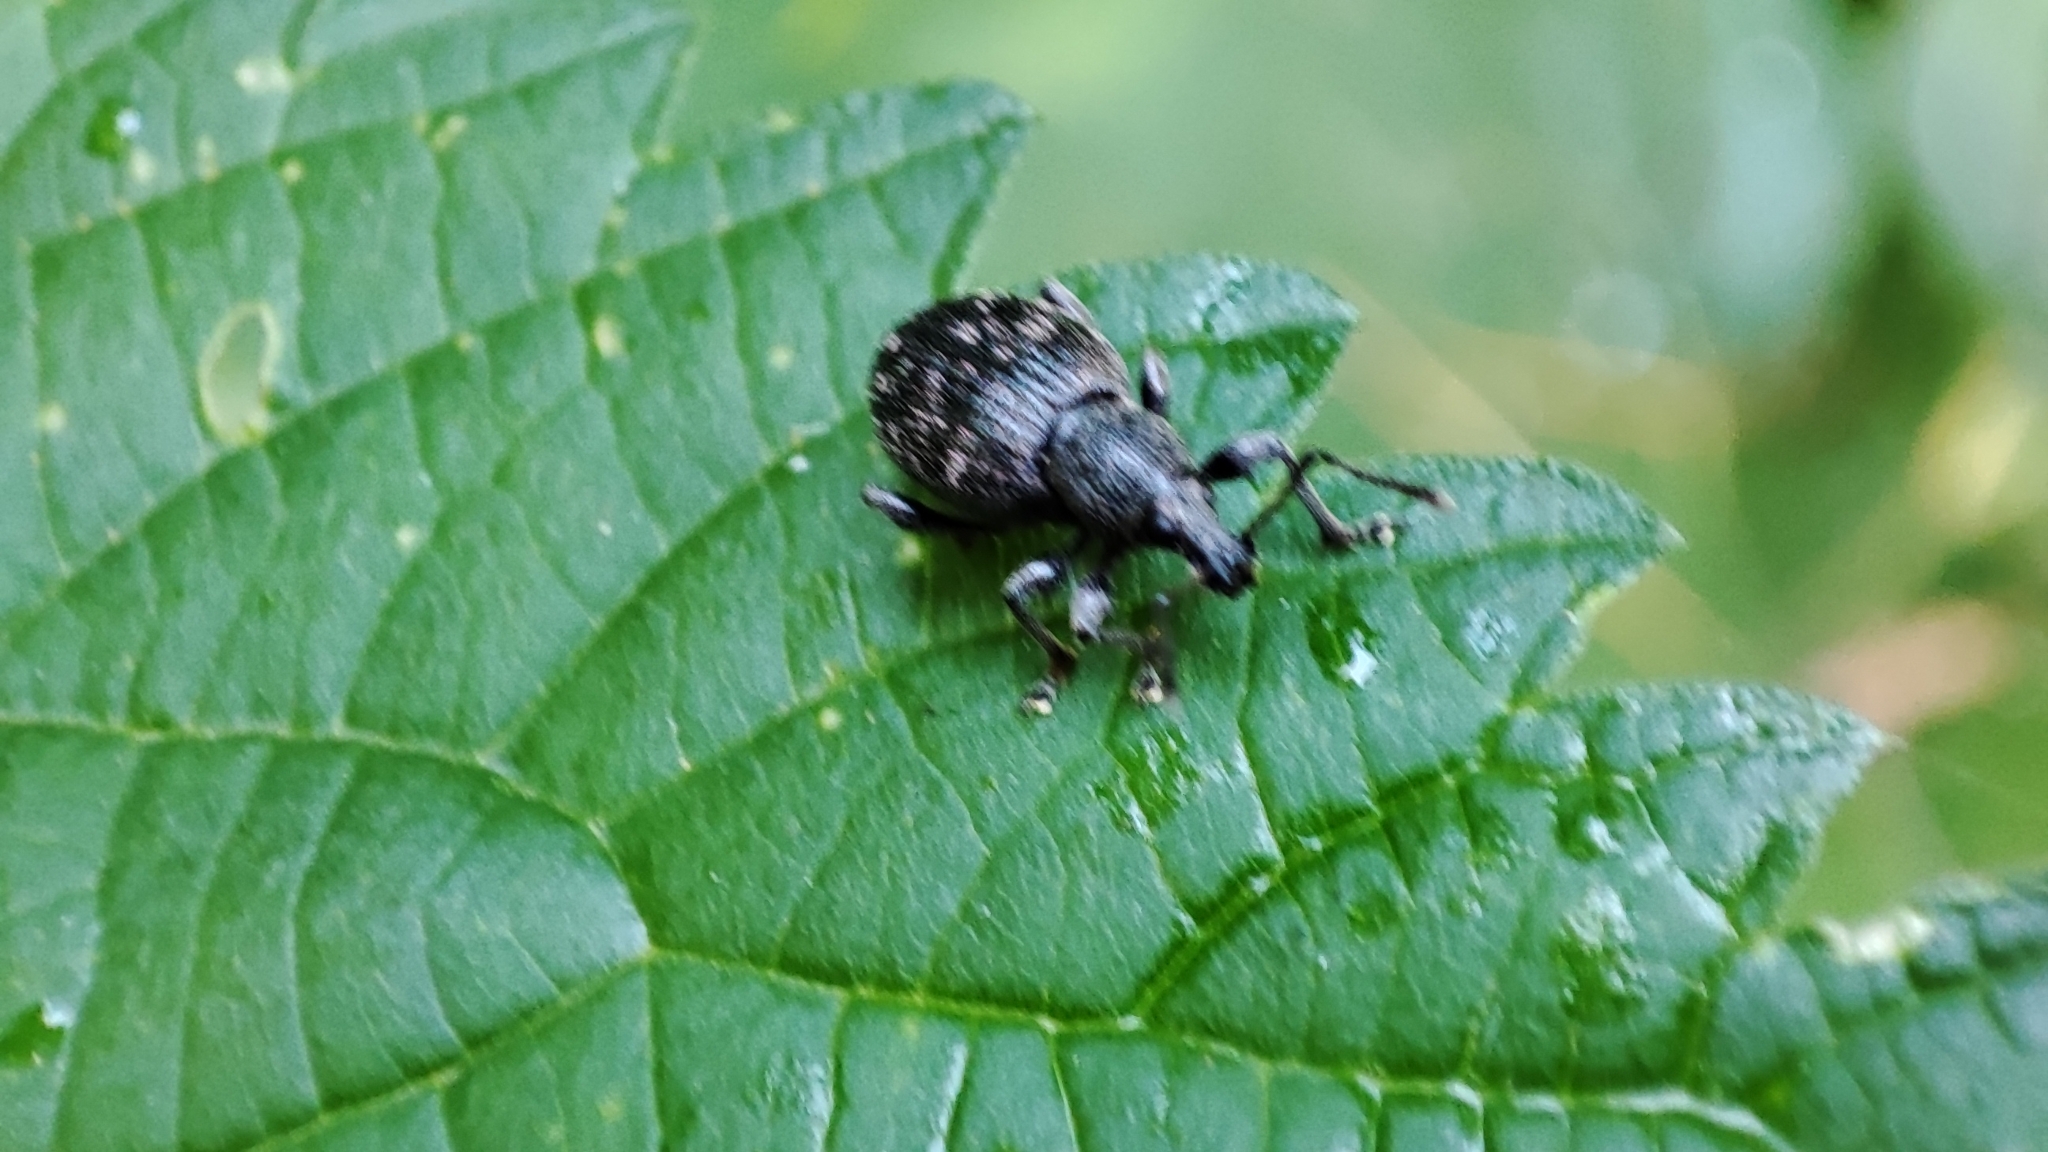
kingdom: Animalia
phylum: Arthropoda
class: Insecta
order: Coleoptera
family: Curculionidae
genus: Otiorhynchus
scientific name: Otiorhynchus tristis
